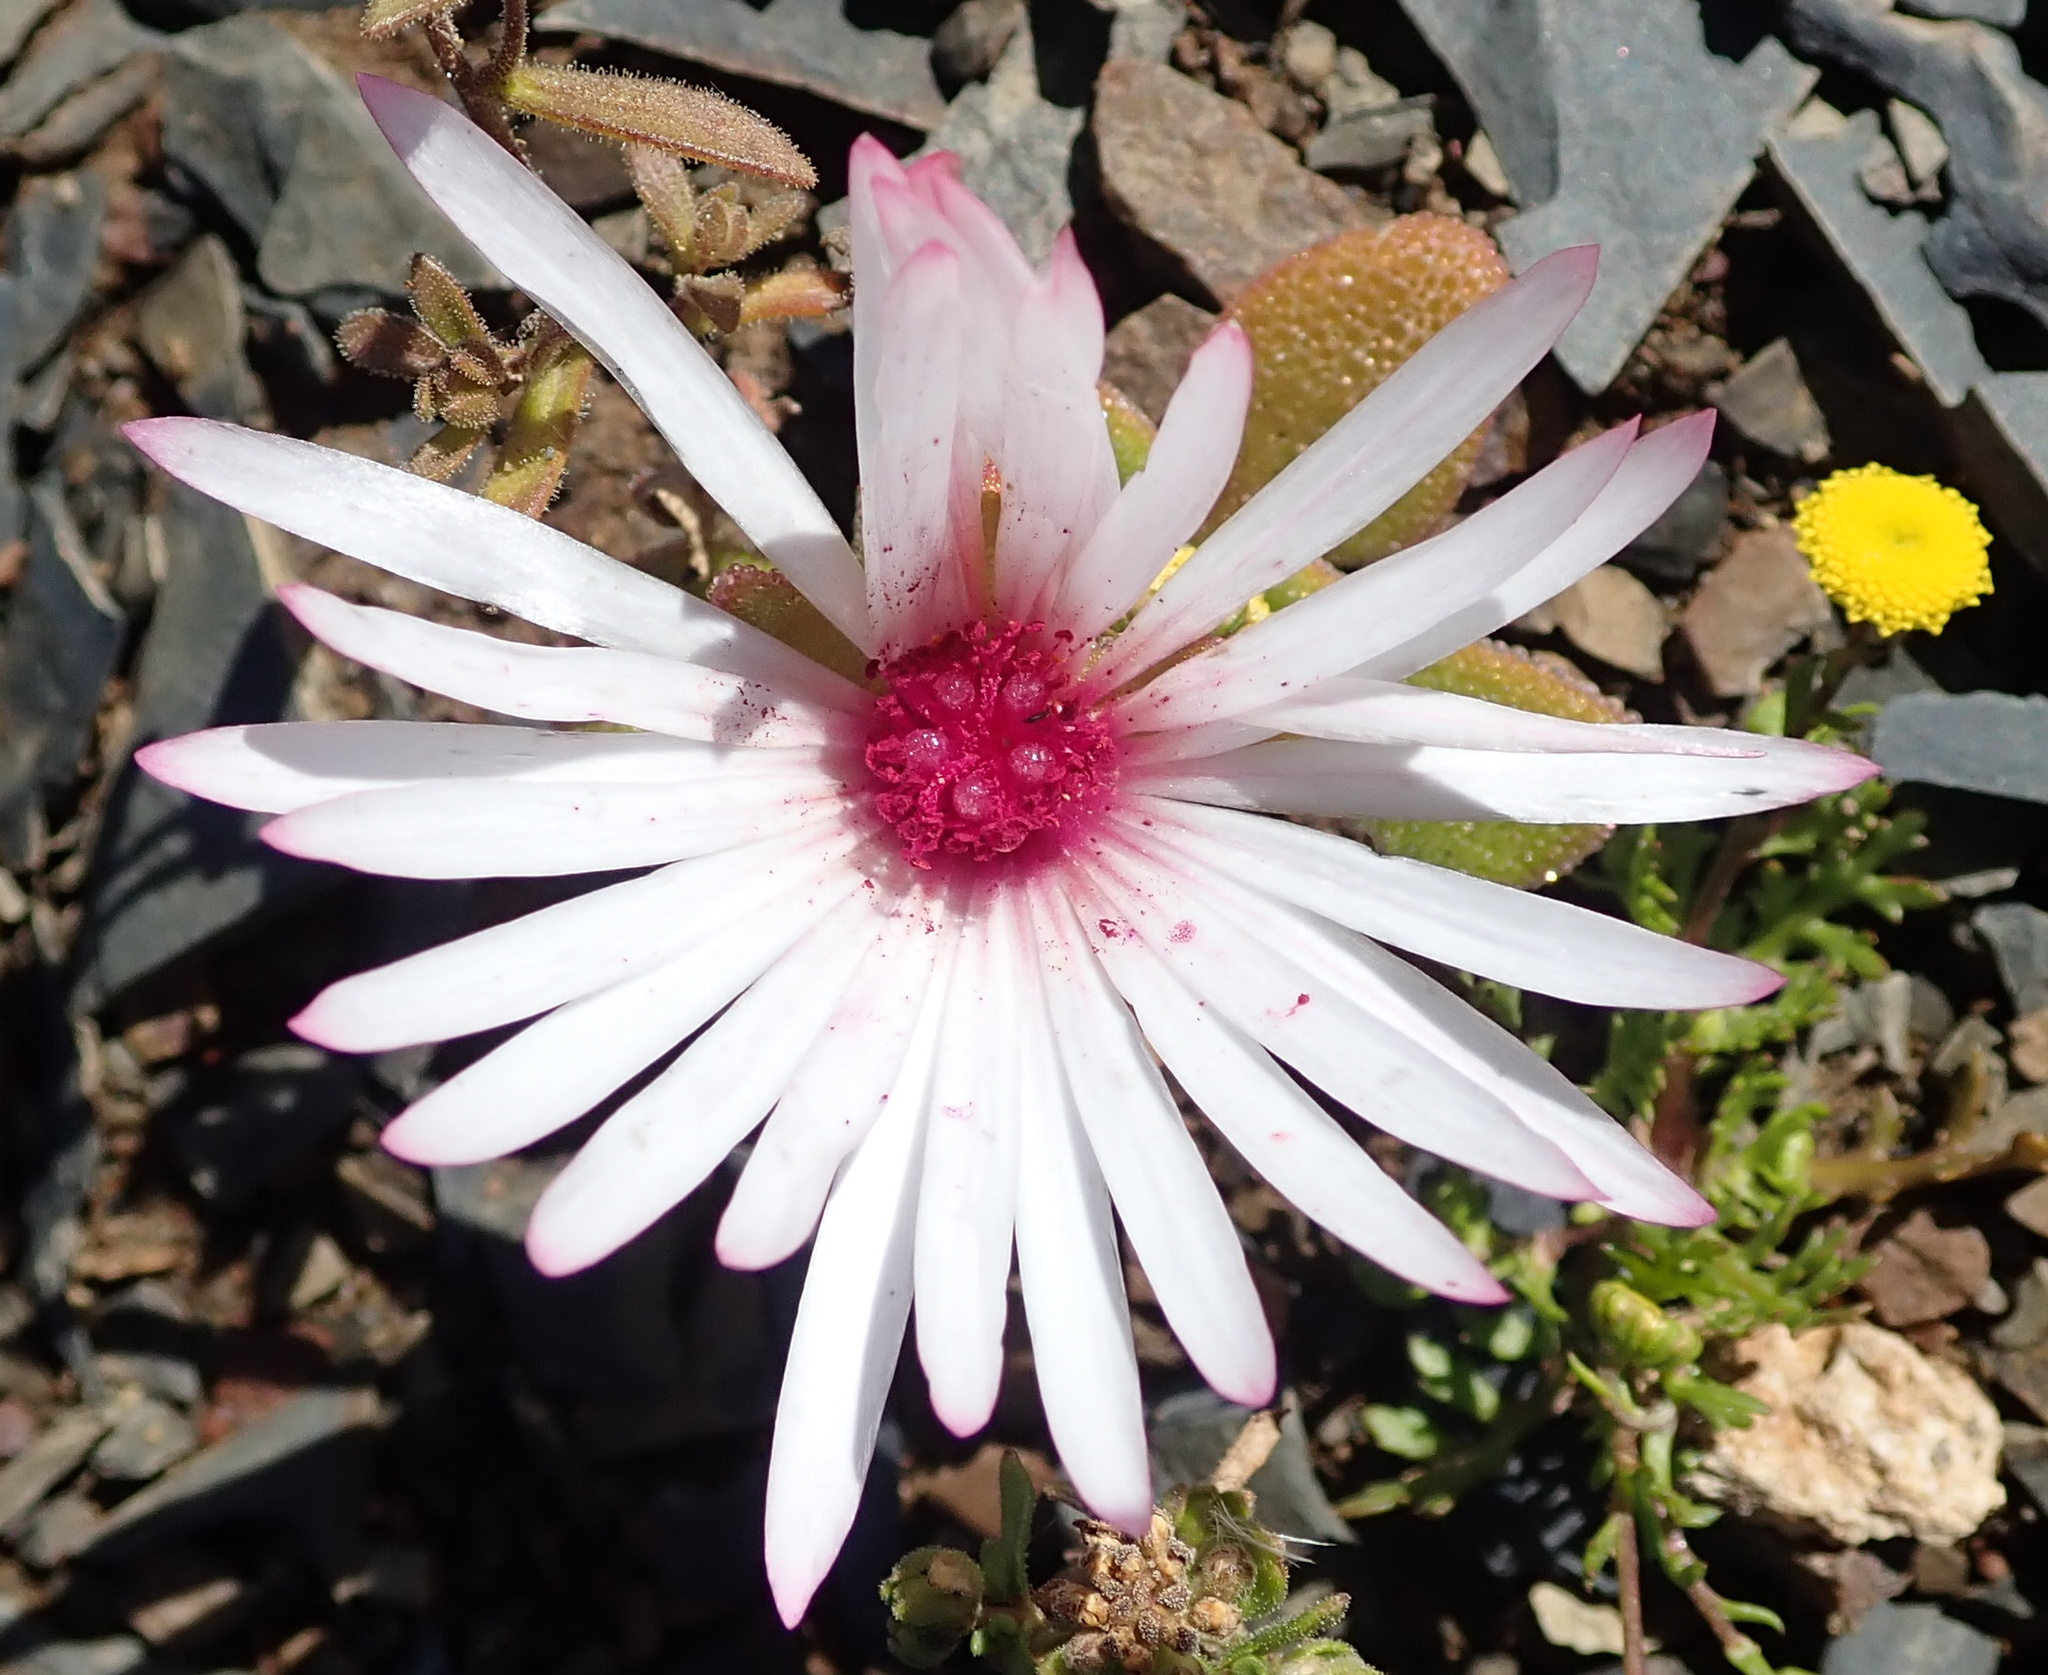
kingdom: Plantae
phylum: Tracheophyta
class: Magnoliopsida
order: Caryophyllales
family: Aizoaceae
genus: Cleretum
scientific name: Cleretum maughanii
